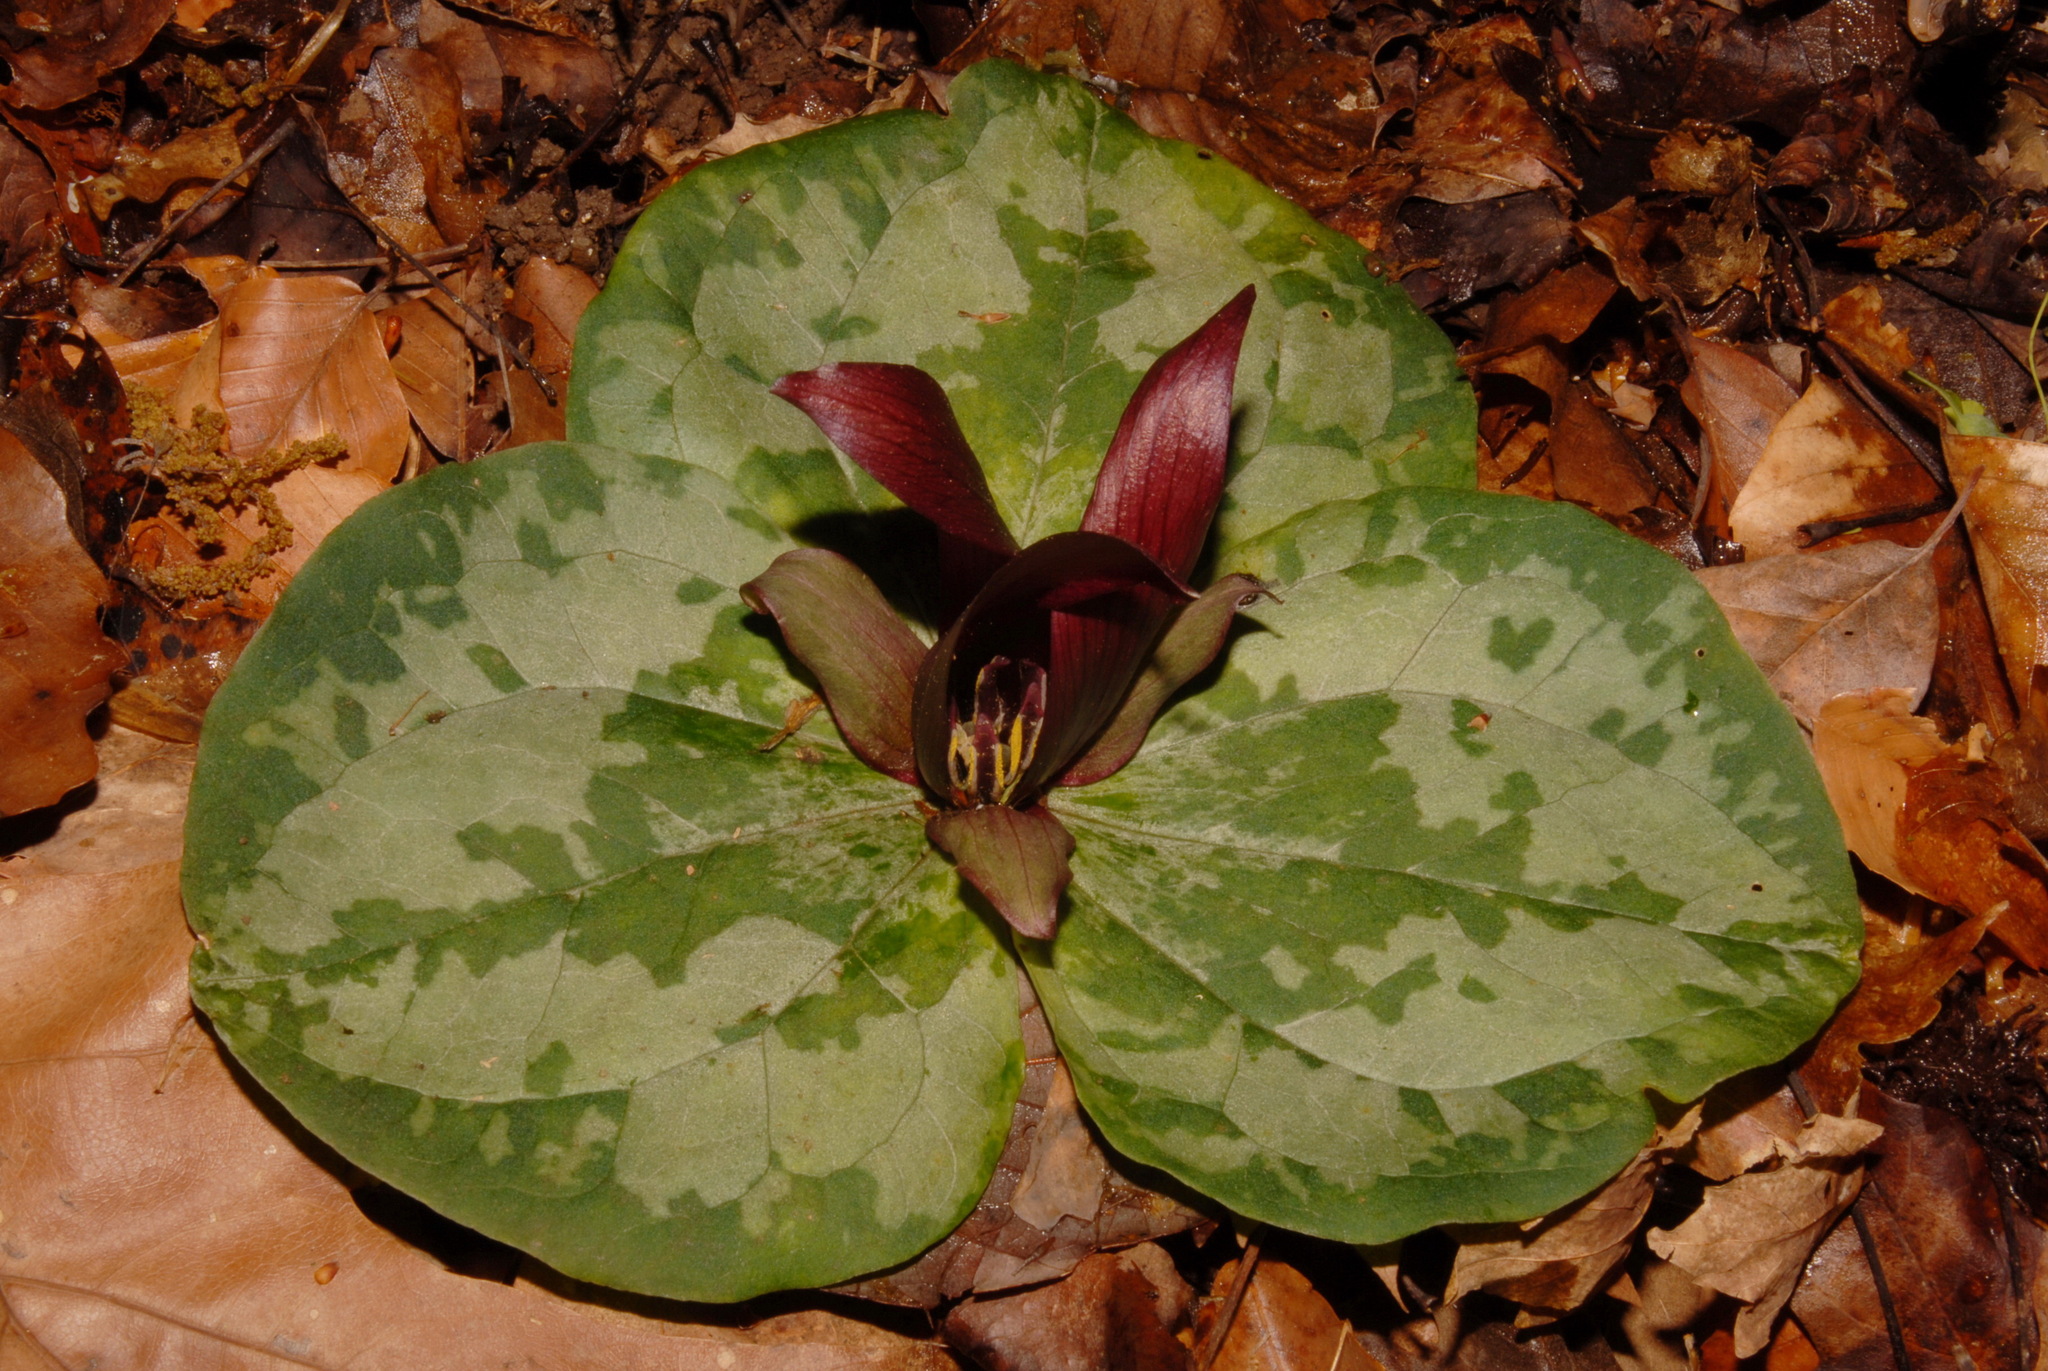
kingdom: Plantae
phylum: Tracheophyta
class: Liliopsida
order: Liliales
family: Melanthiaceae
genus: Trillium
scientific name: Trillium decumbens
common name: Decumbent trillium
